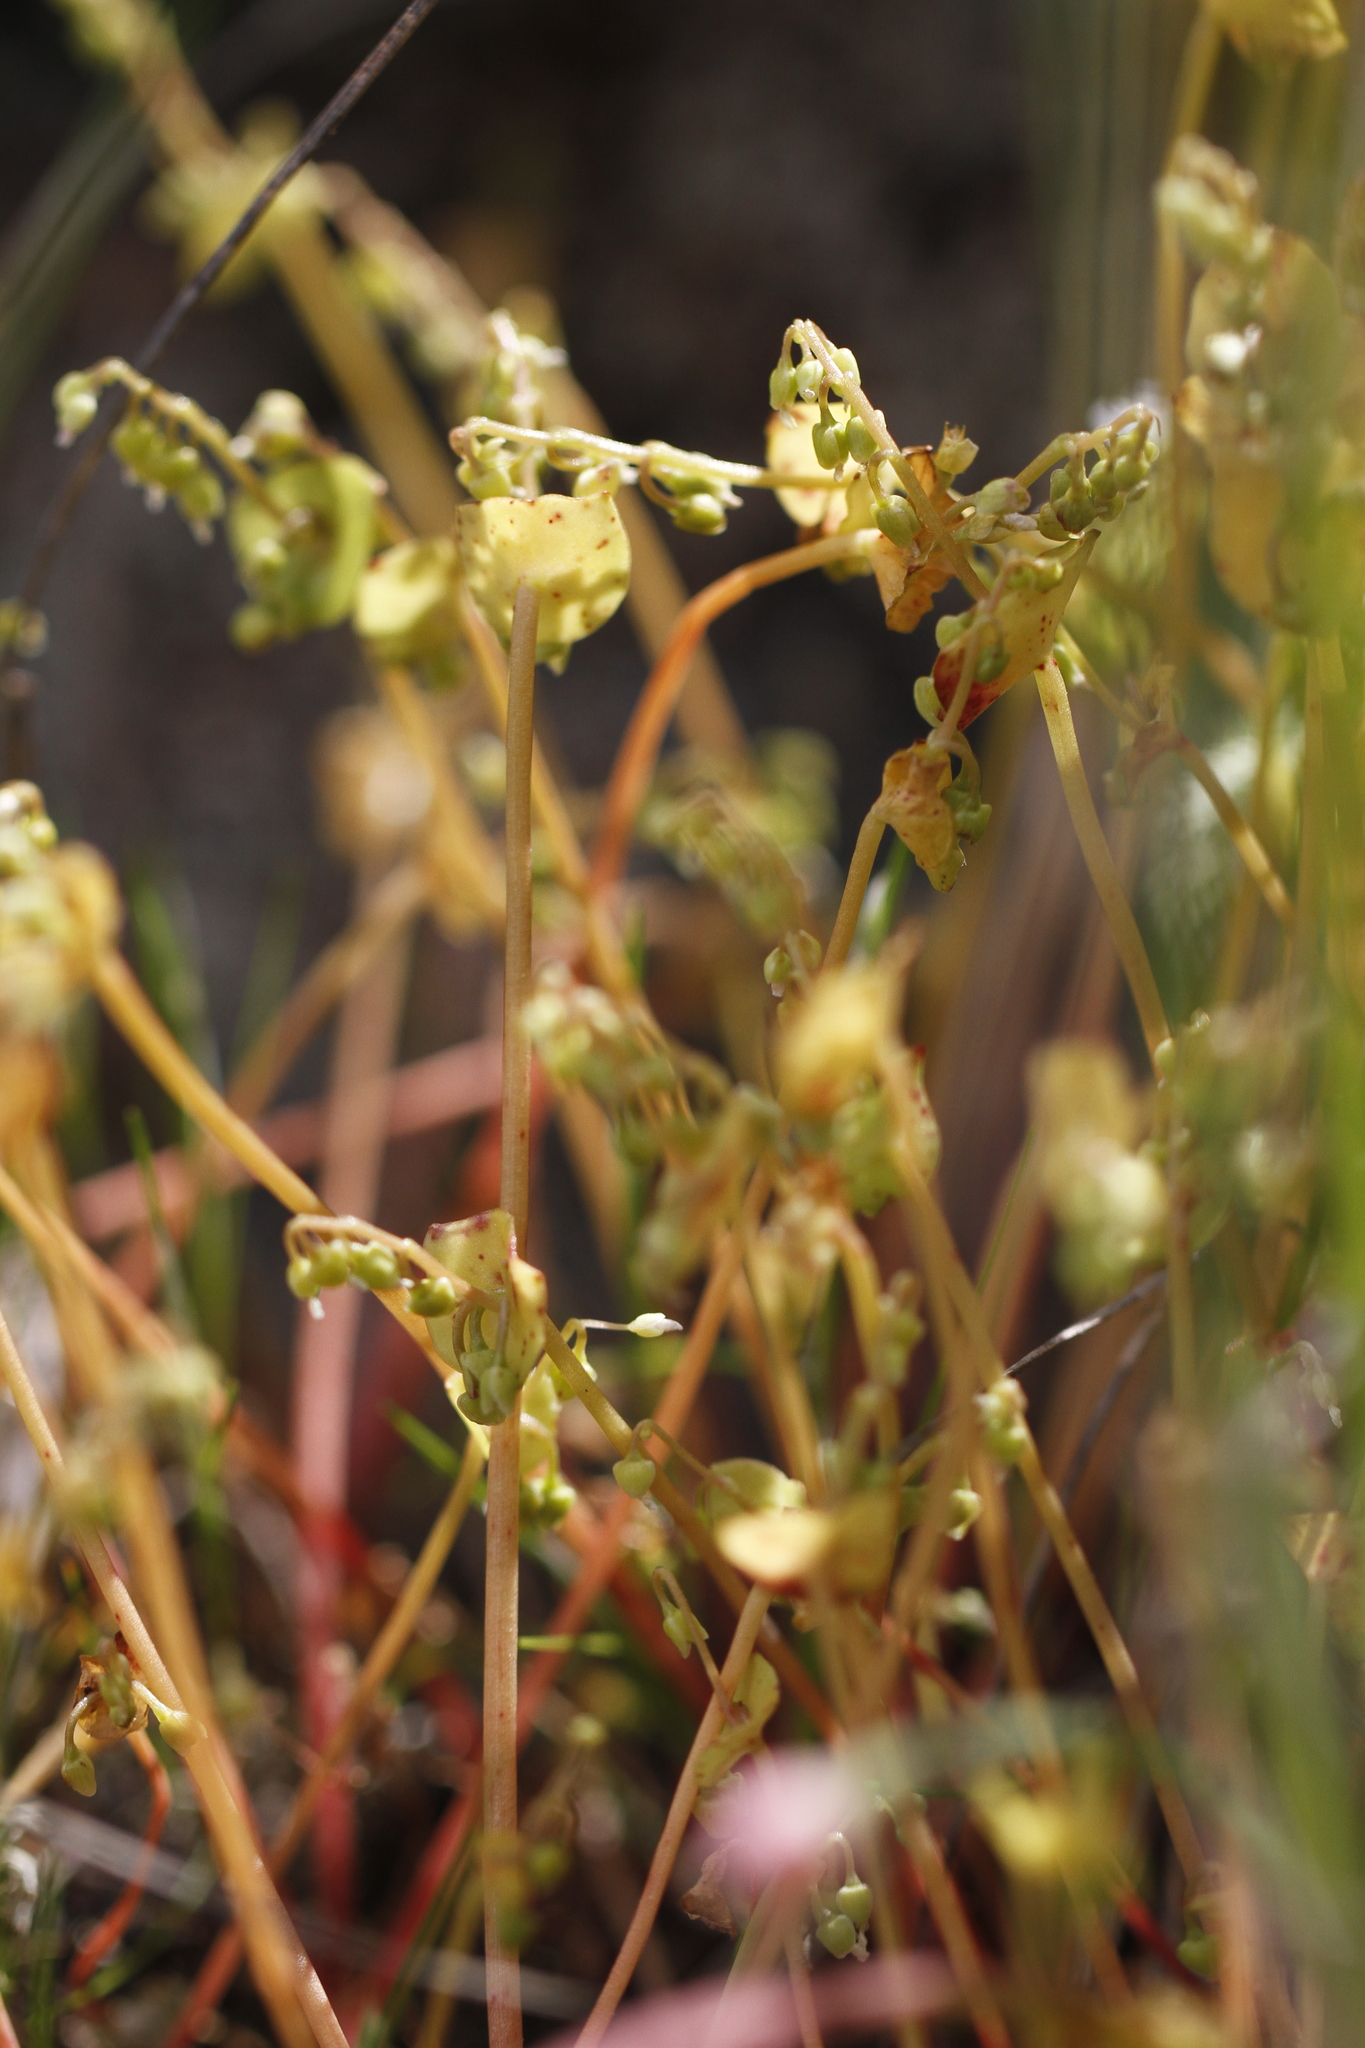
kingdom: Plantae
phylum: Tracheophyta
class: Magnoliopsida
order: Caryophyllales
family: Montiaceae
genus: Claytonia
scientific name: Claytonia perfoliata
